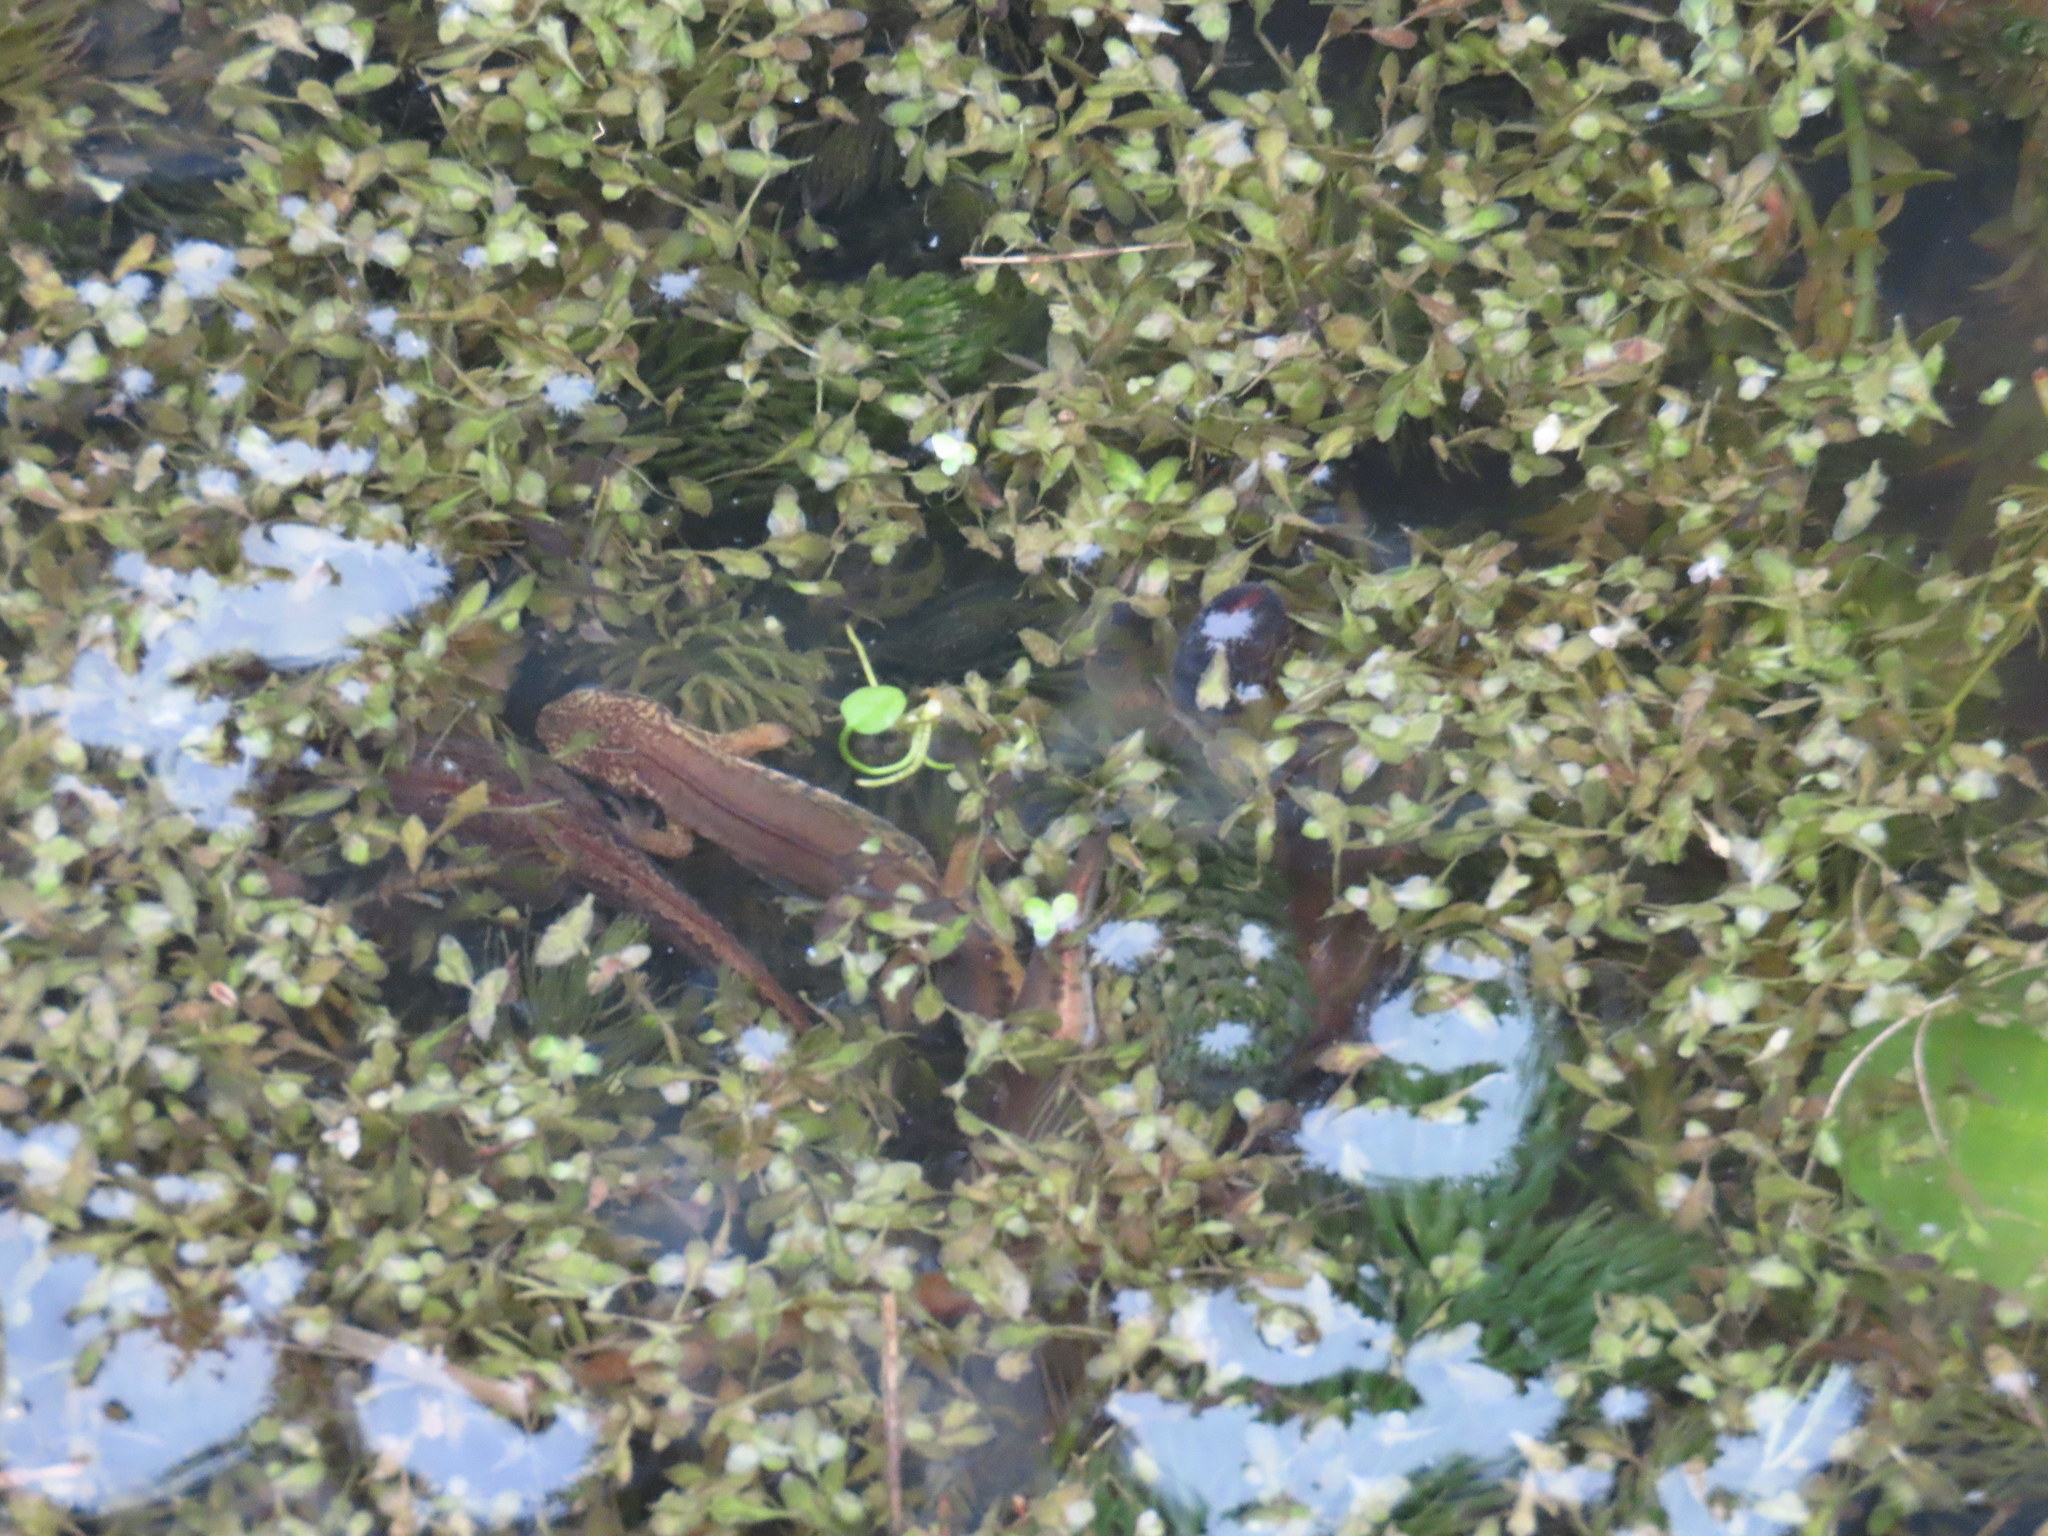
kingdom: Animalia
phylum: Chordata
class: Amphibia
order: Caudata
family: Salamandridae
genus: Lissotriton
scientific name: Lissotriton helveticus
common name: Palmate newt
